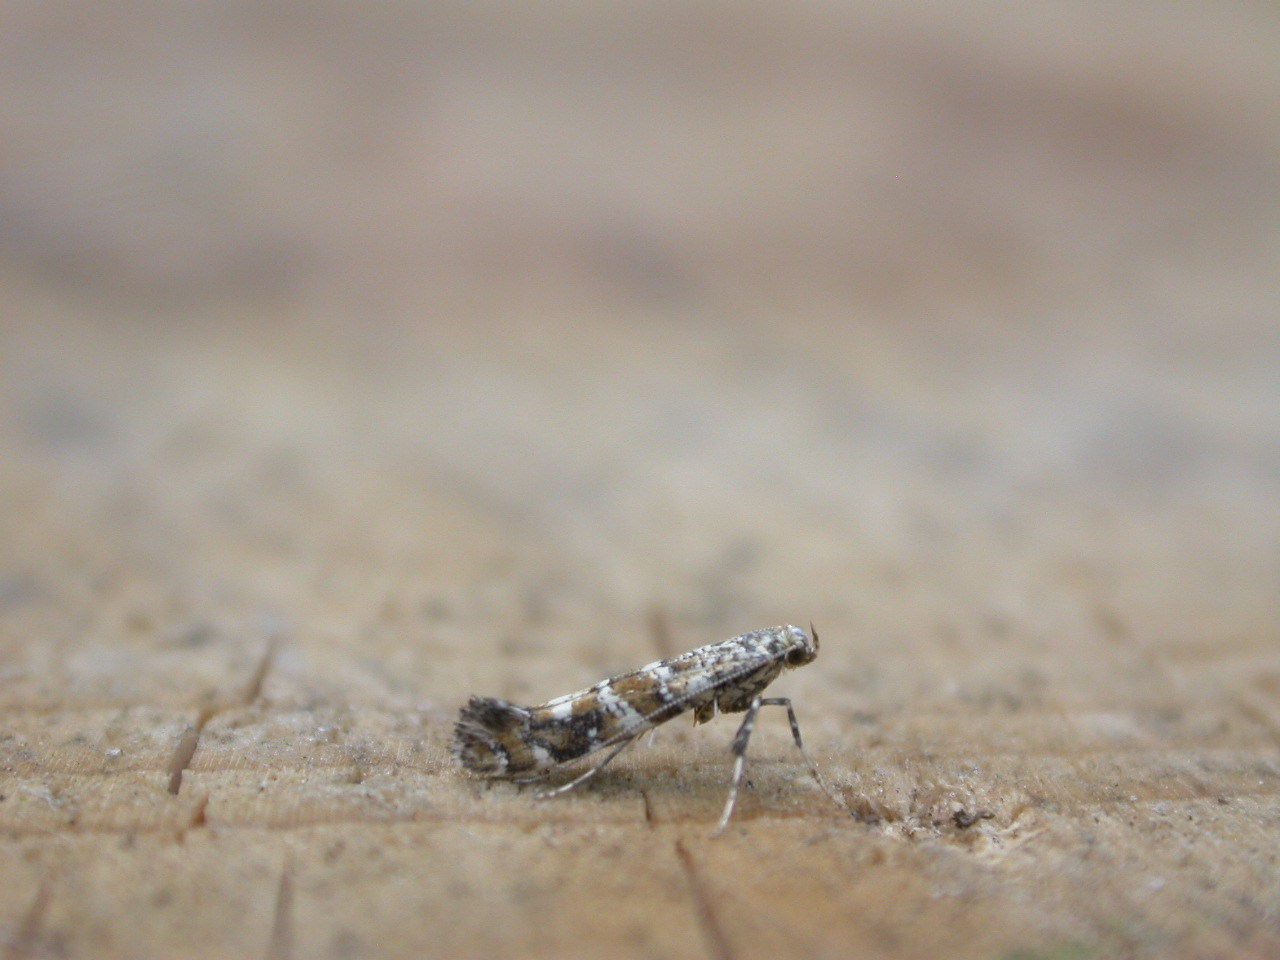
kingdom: Animalia
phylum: Arthropoda
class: Insecta
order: Lepidoptera
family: Gracillariidae
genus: Gracillaria
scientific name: Gracillaria syringella
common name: Common slender
